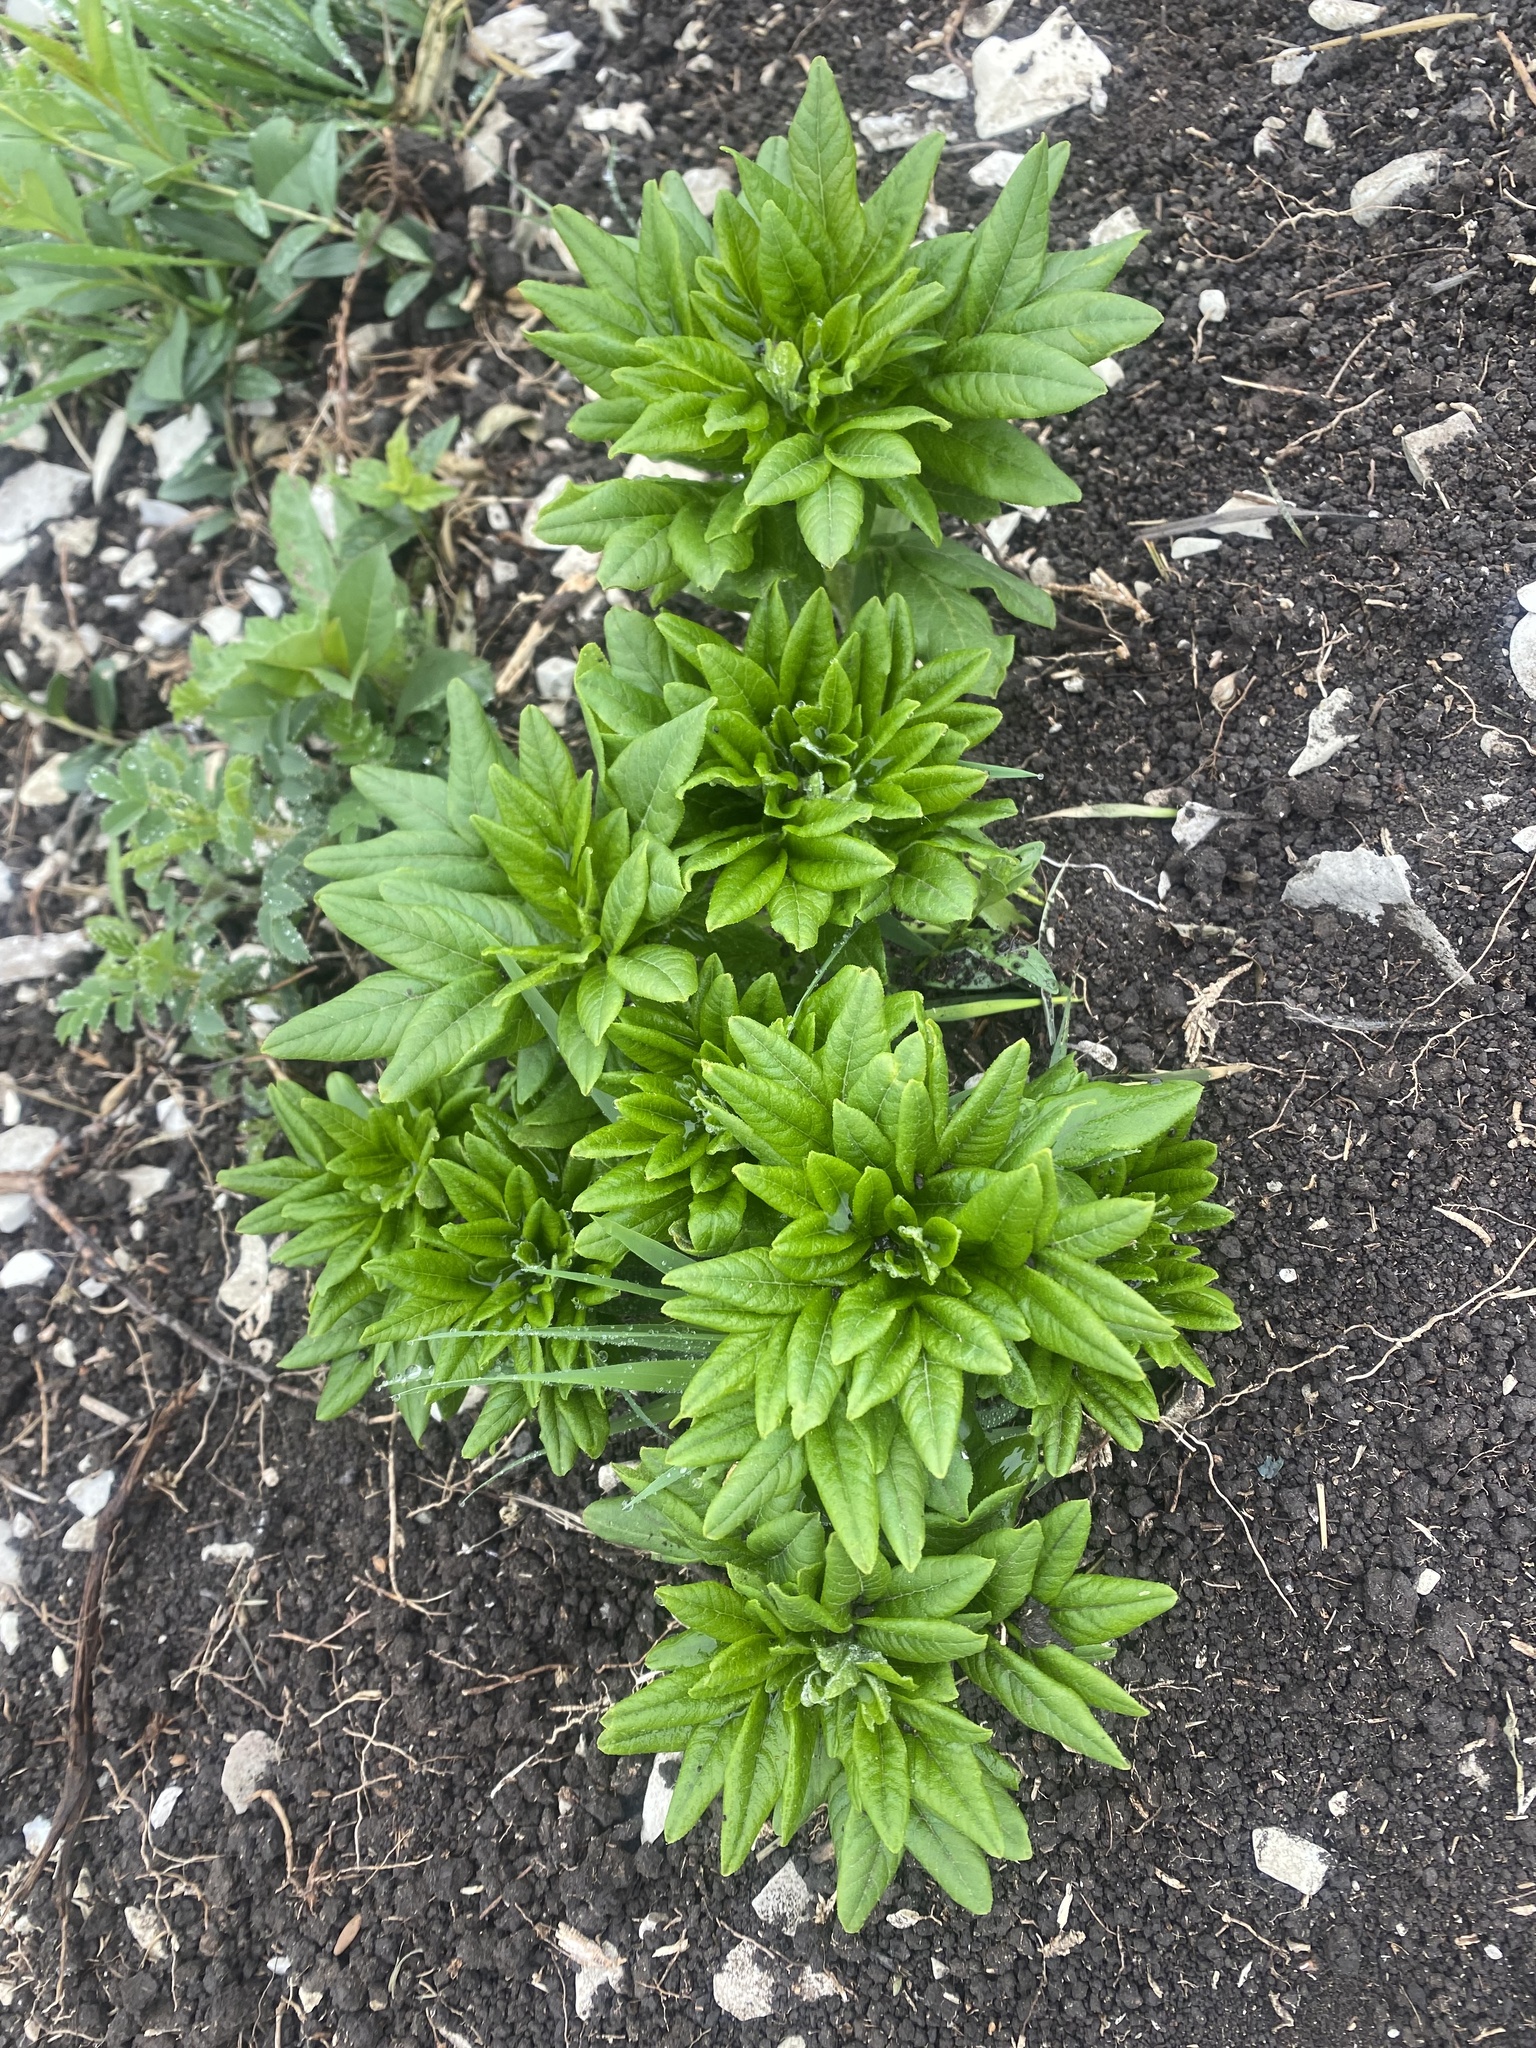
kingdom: Plantae
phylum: Tracheophyta
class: Magnoliopsida
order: Sapindales
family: Rutaceae
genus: Dictamnus
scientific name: Dictamnus albus
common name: Gasplant
